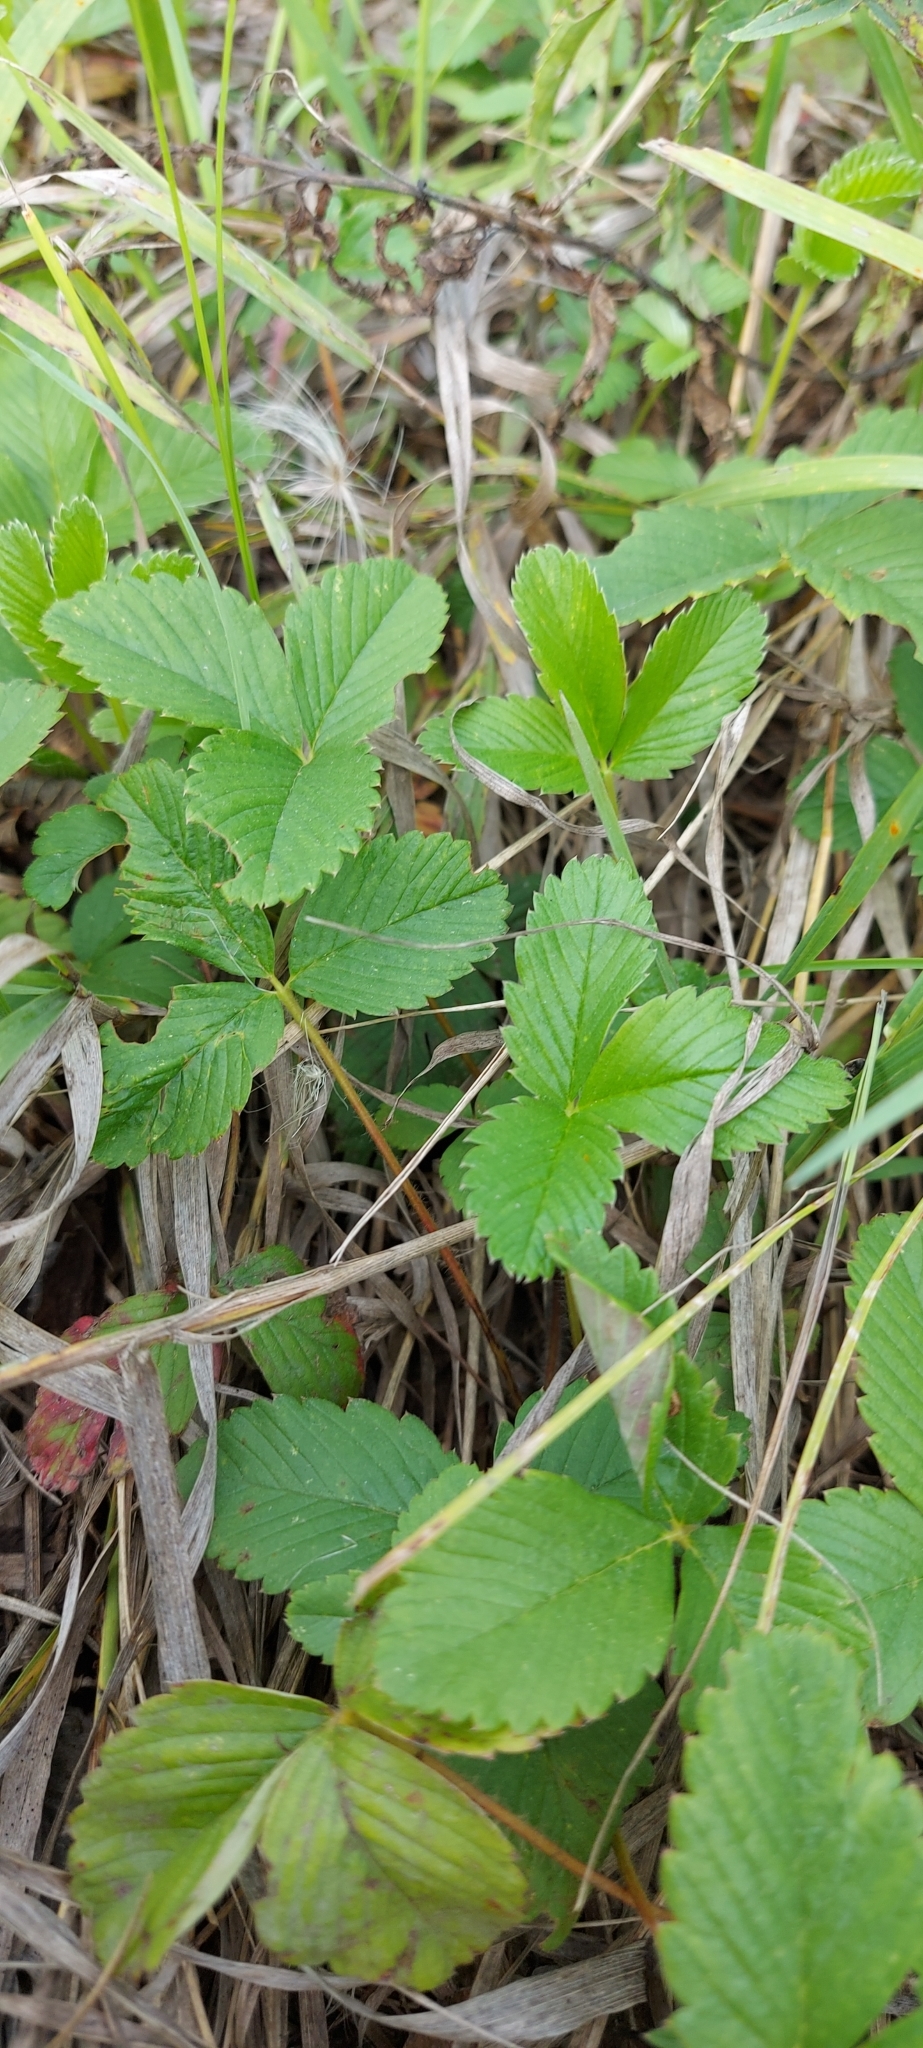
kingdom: Plantae
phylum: Tracheophyta
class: Magnoliopsida
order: Rosales
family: Rosaceae
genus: Fragaria
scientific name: Fragaria viridis
